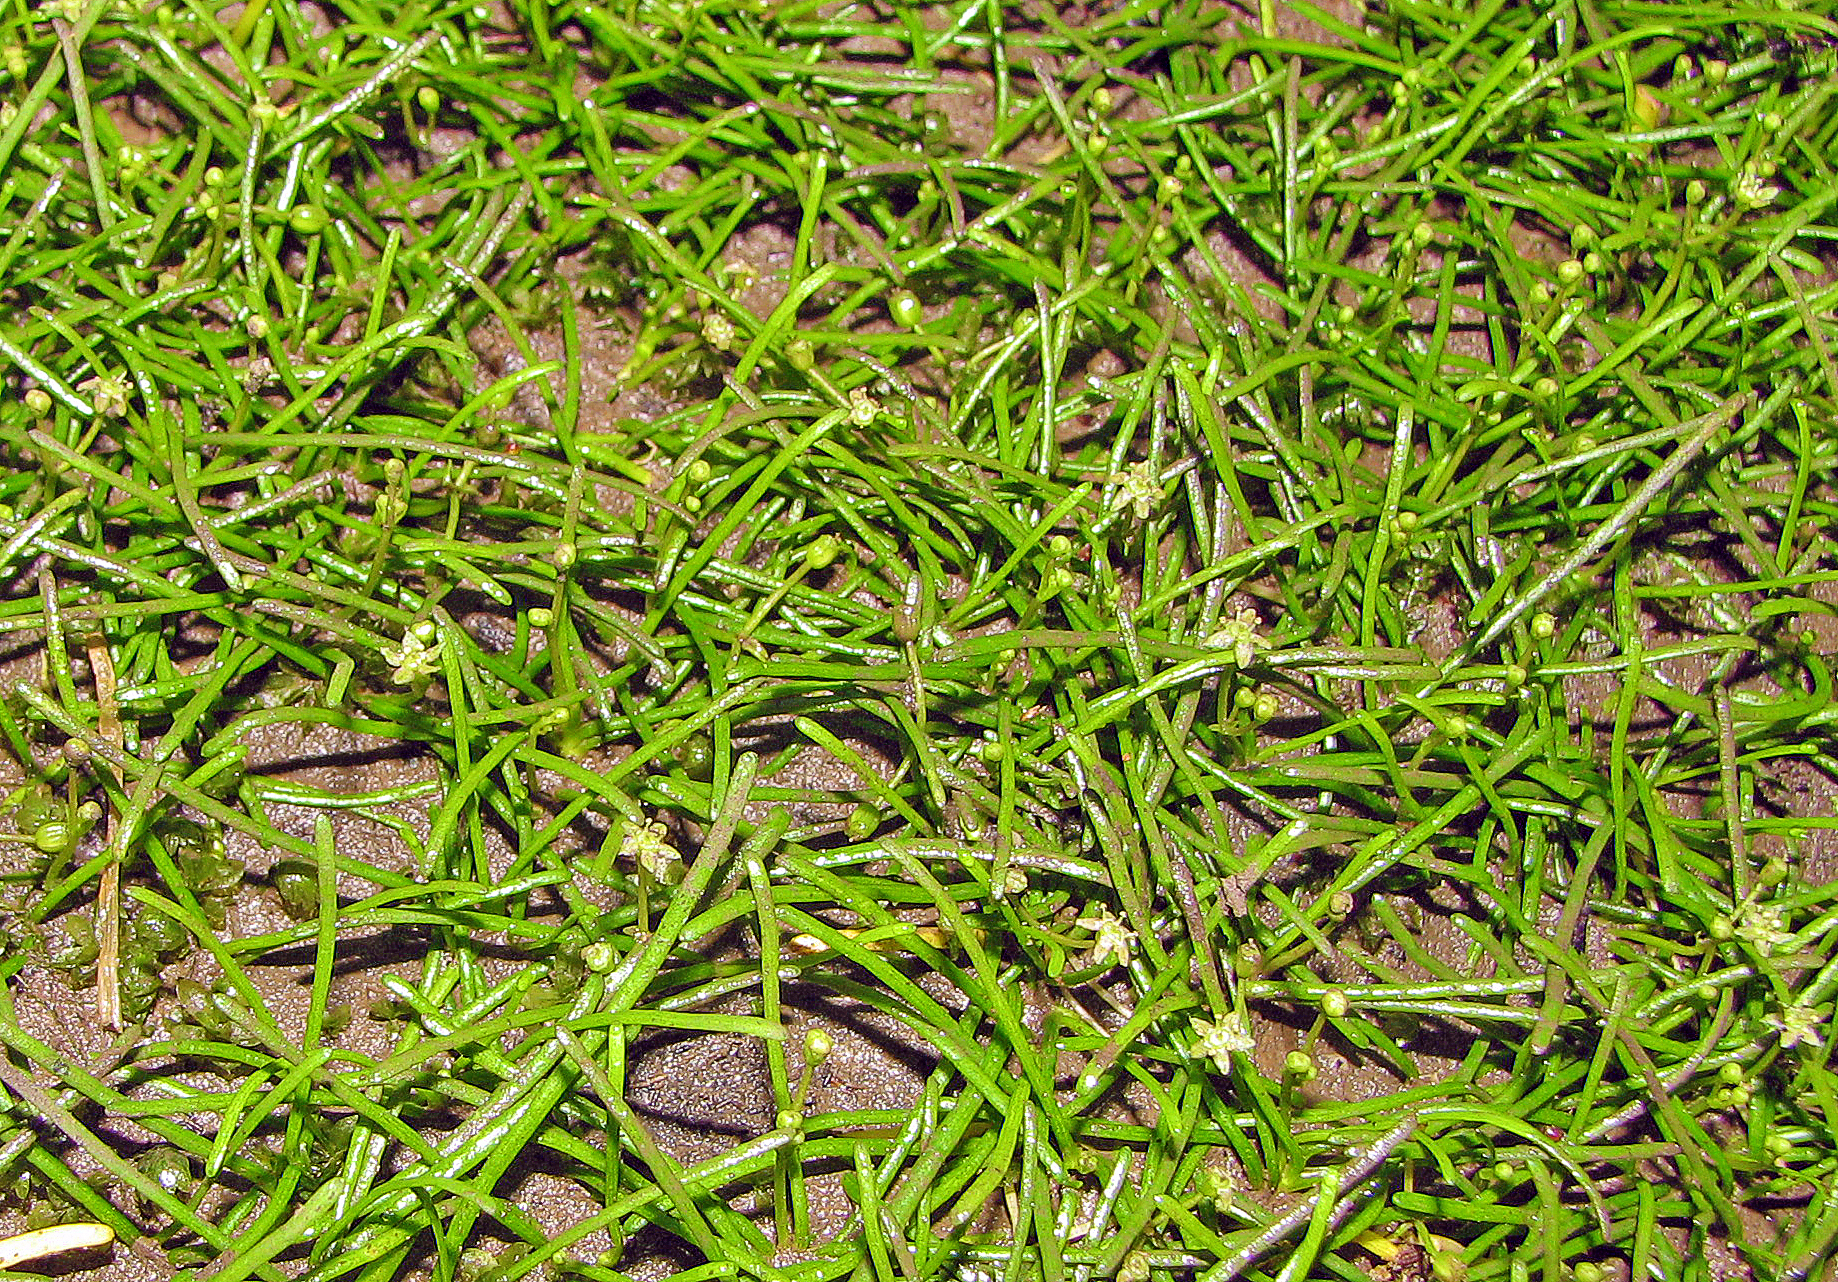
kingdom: Plantae
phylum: Tracheophyta
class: Magnoliopsida
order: Apiales
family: Apiaceae
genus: Lilaeopsis
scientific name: Lilaeopsis brisbanica
